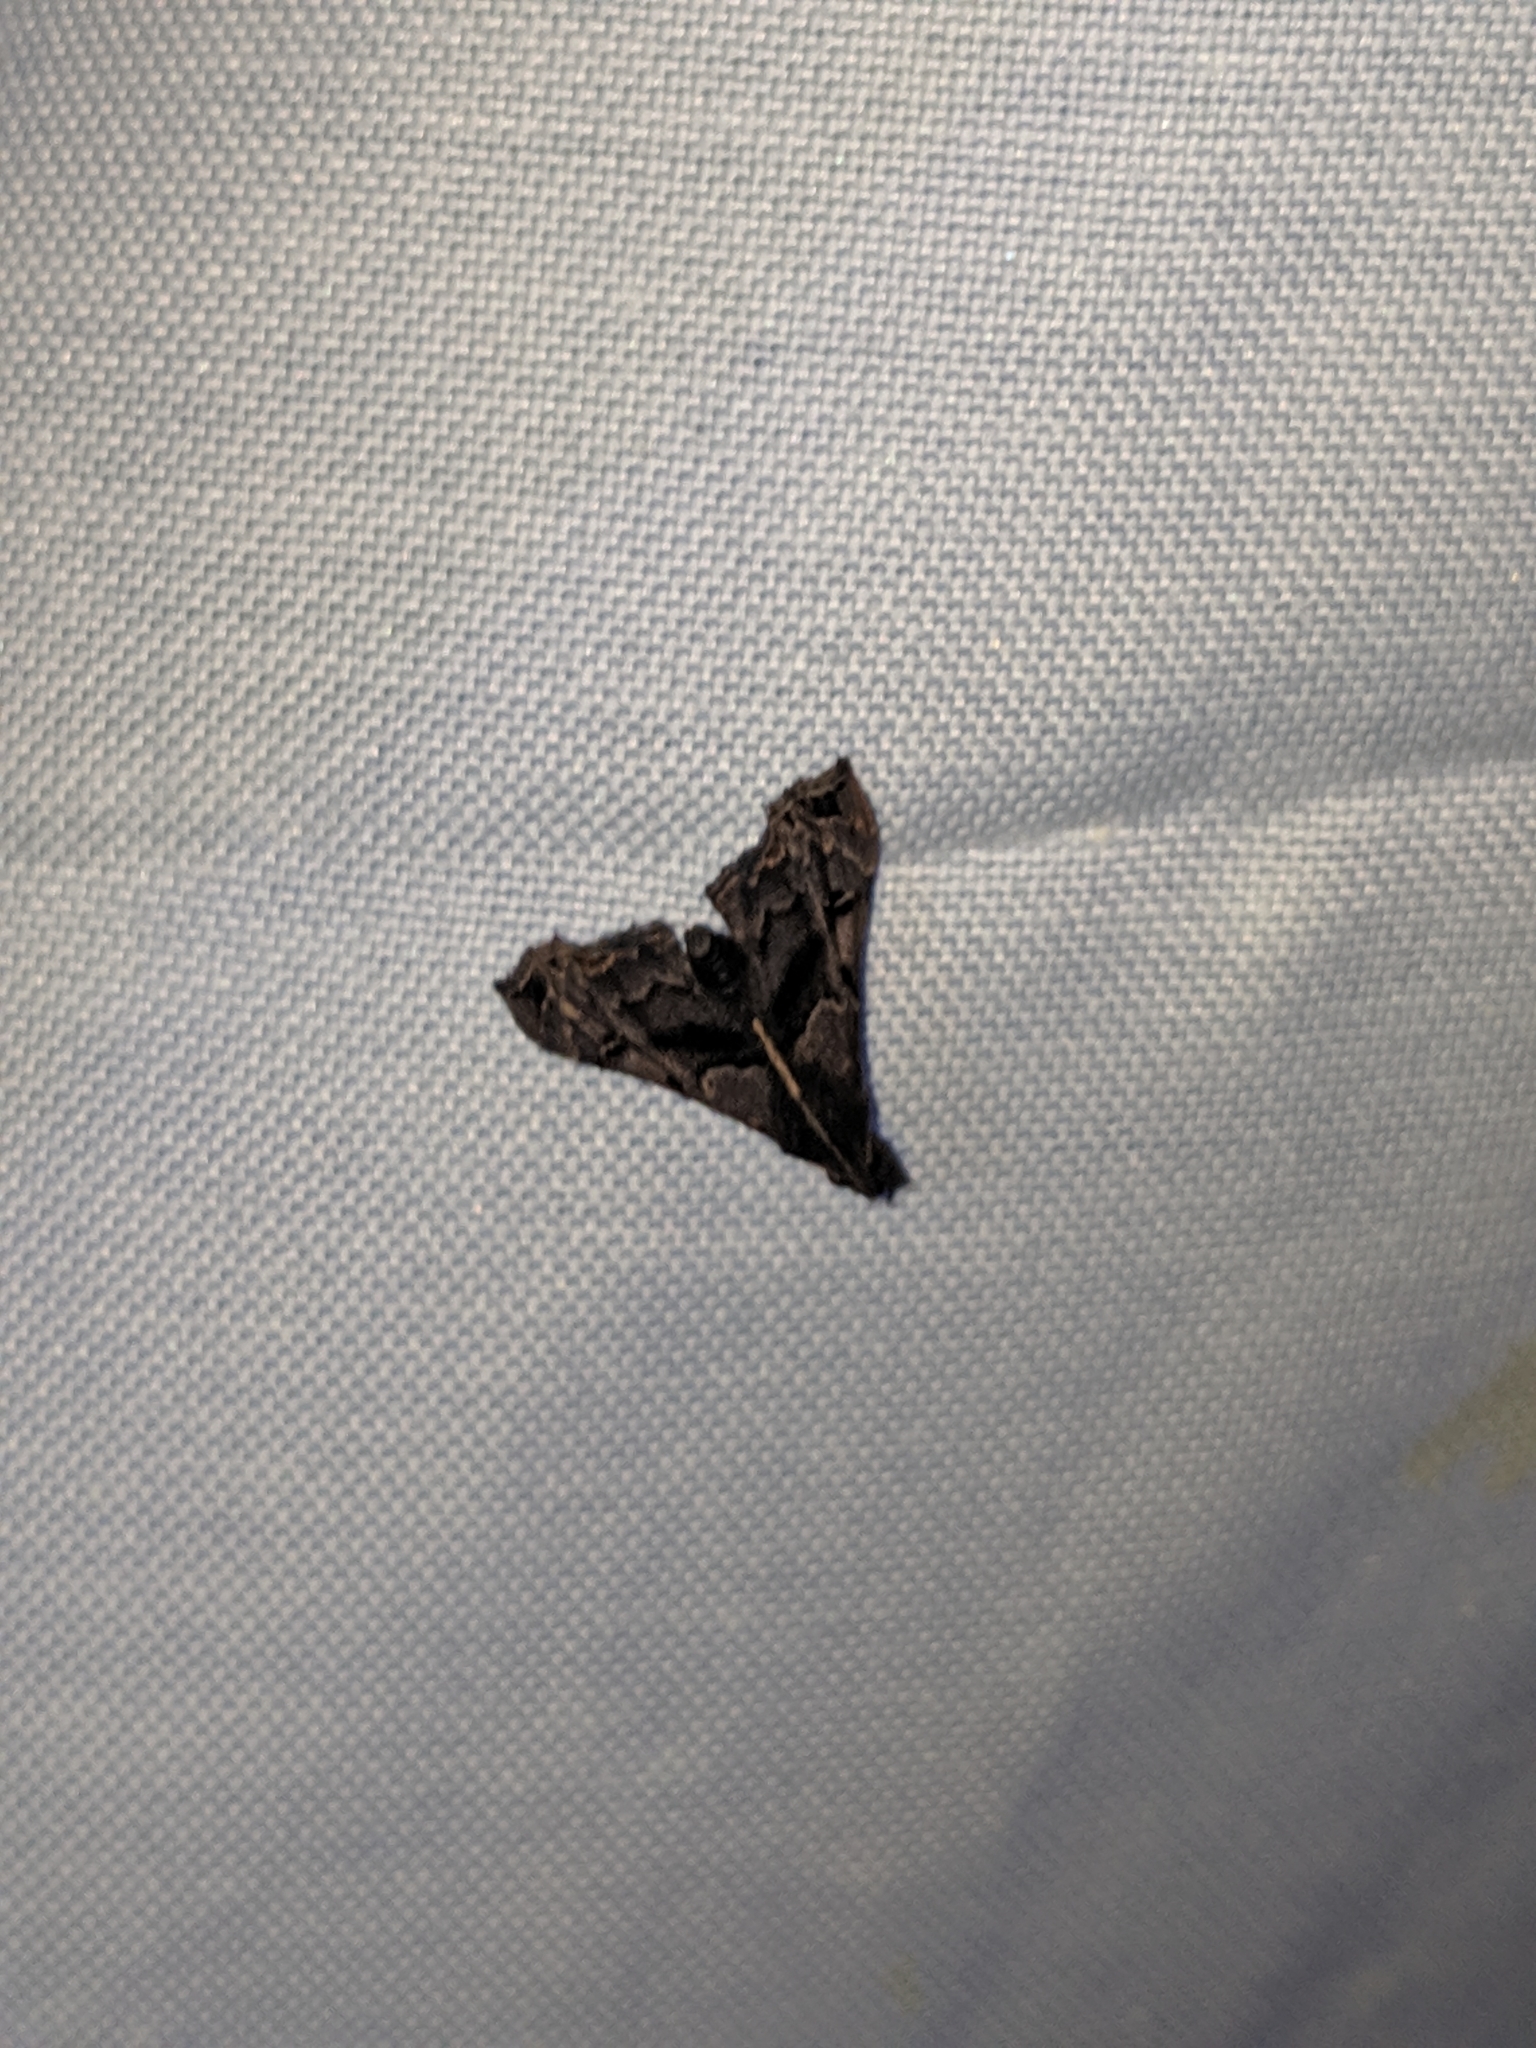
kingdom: Animalia
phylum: Arthropoda
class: Insecta
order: Lepidoptera
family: Erebidae
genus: Palthis
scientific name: Palthis asopialis
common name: Faint-spotted palthis moth
